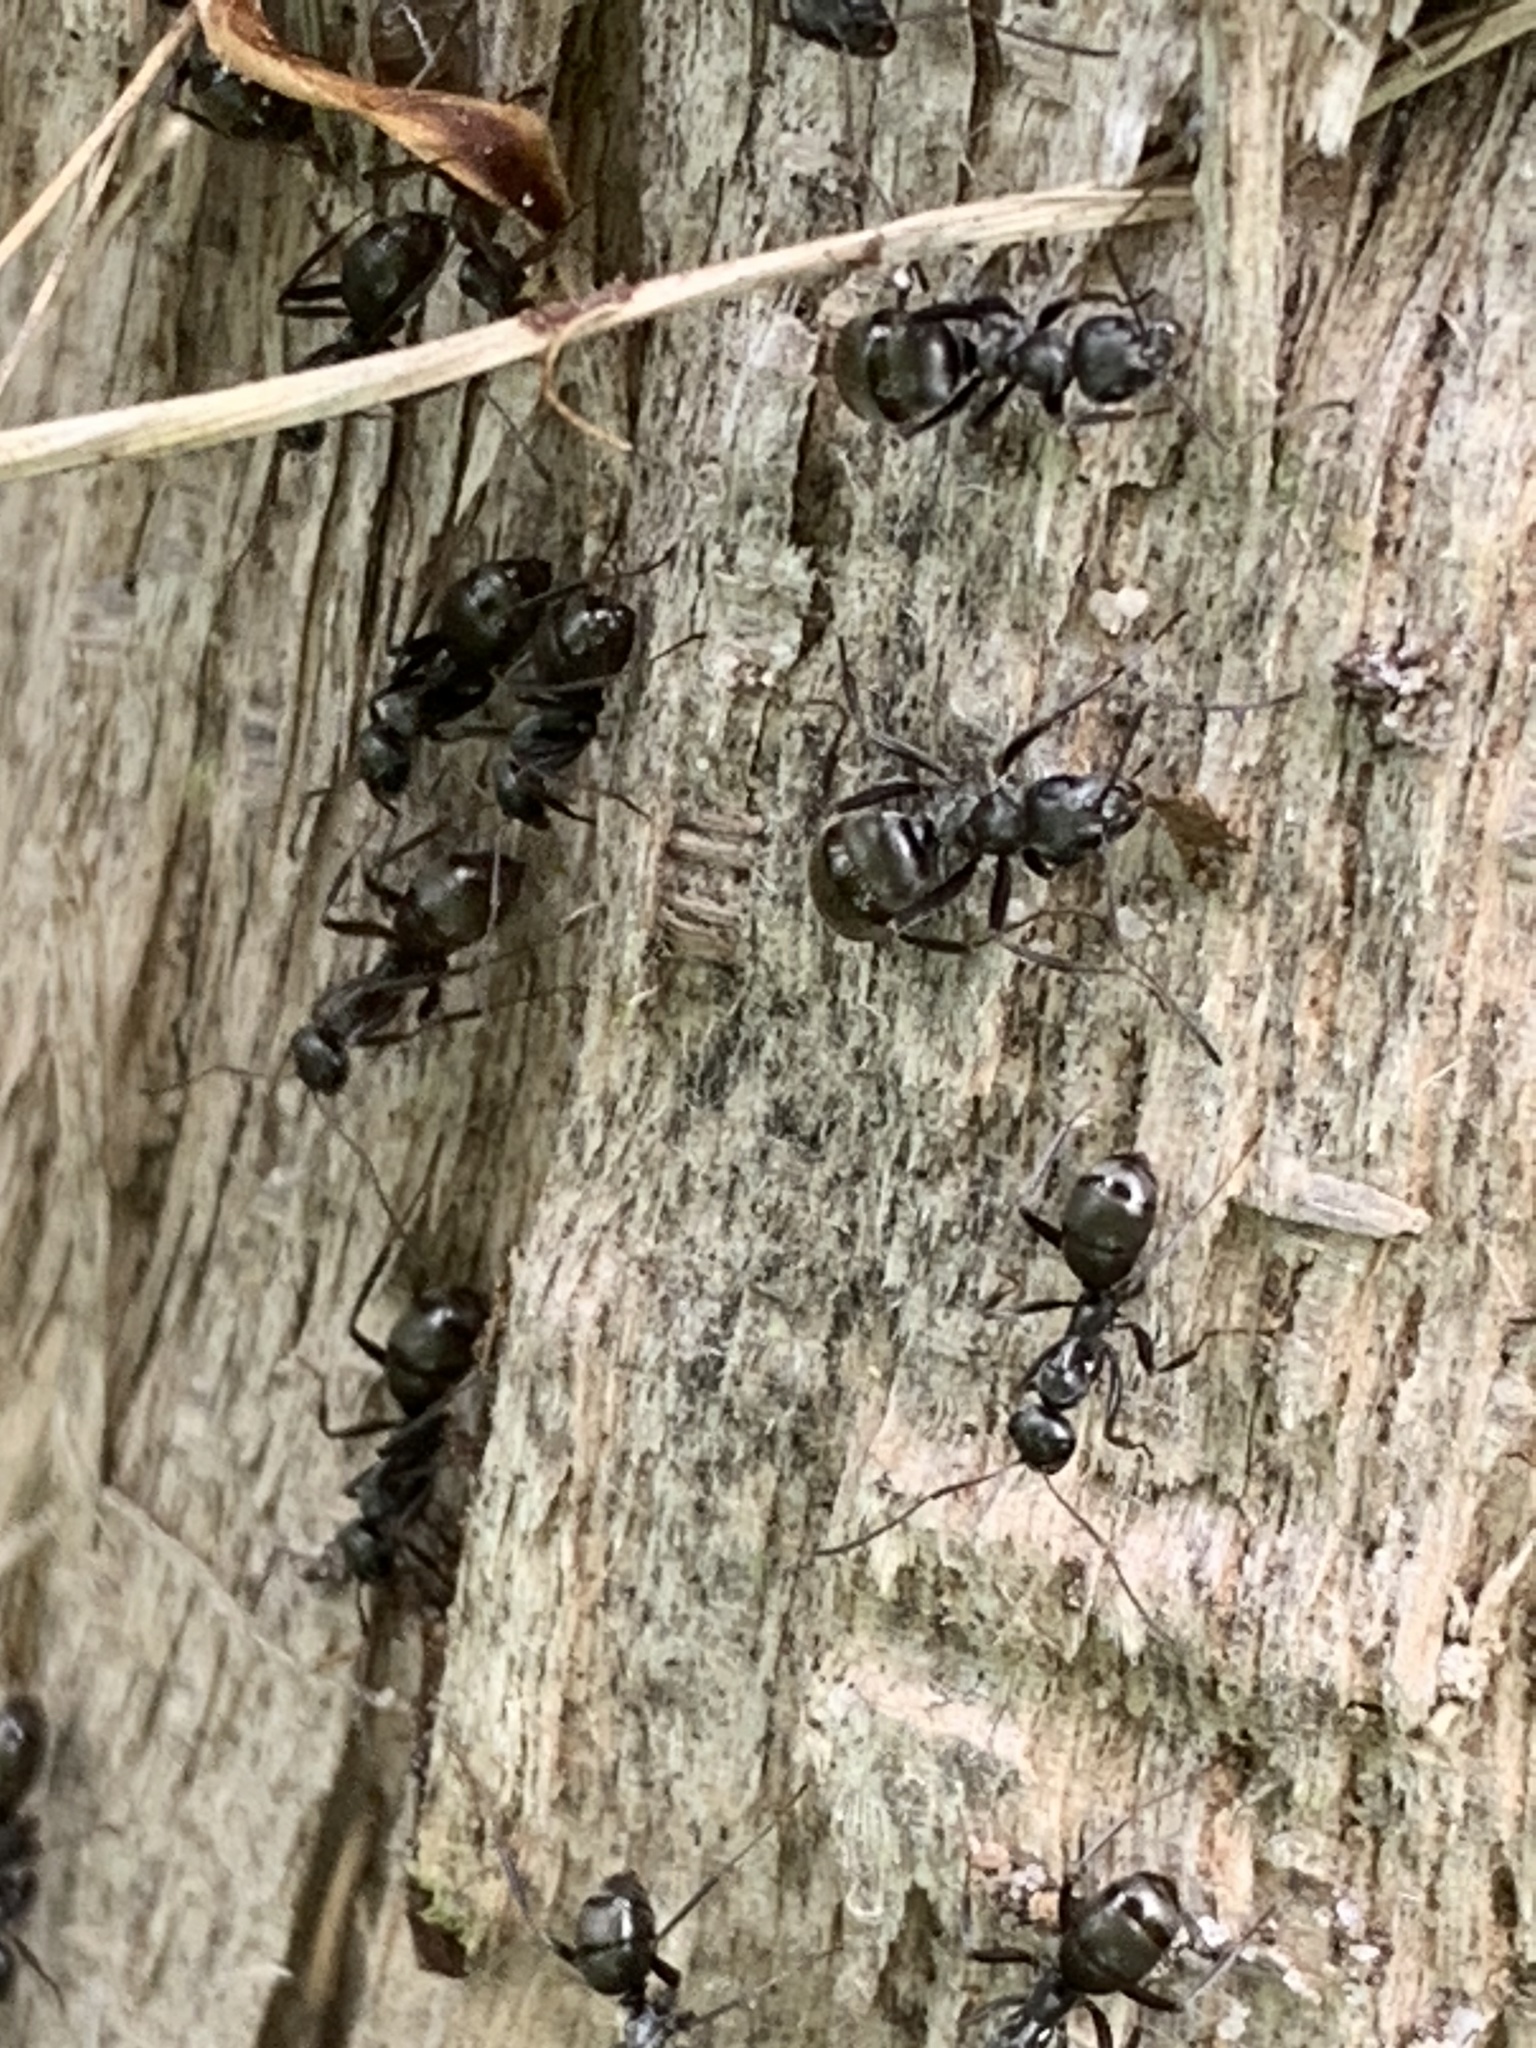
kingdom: Animalia
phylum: Arthropoda
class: Insecta
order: Hymenoptera
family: Formicidae
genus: Formica
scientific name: Formica
